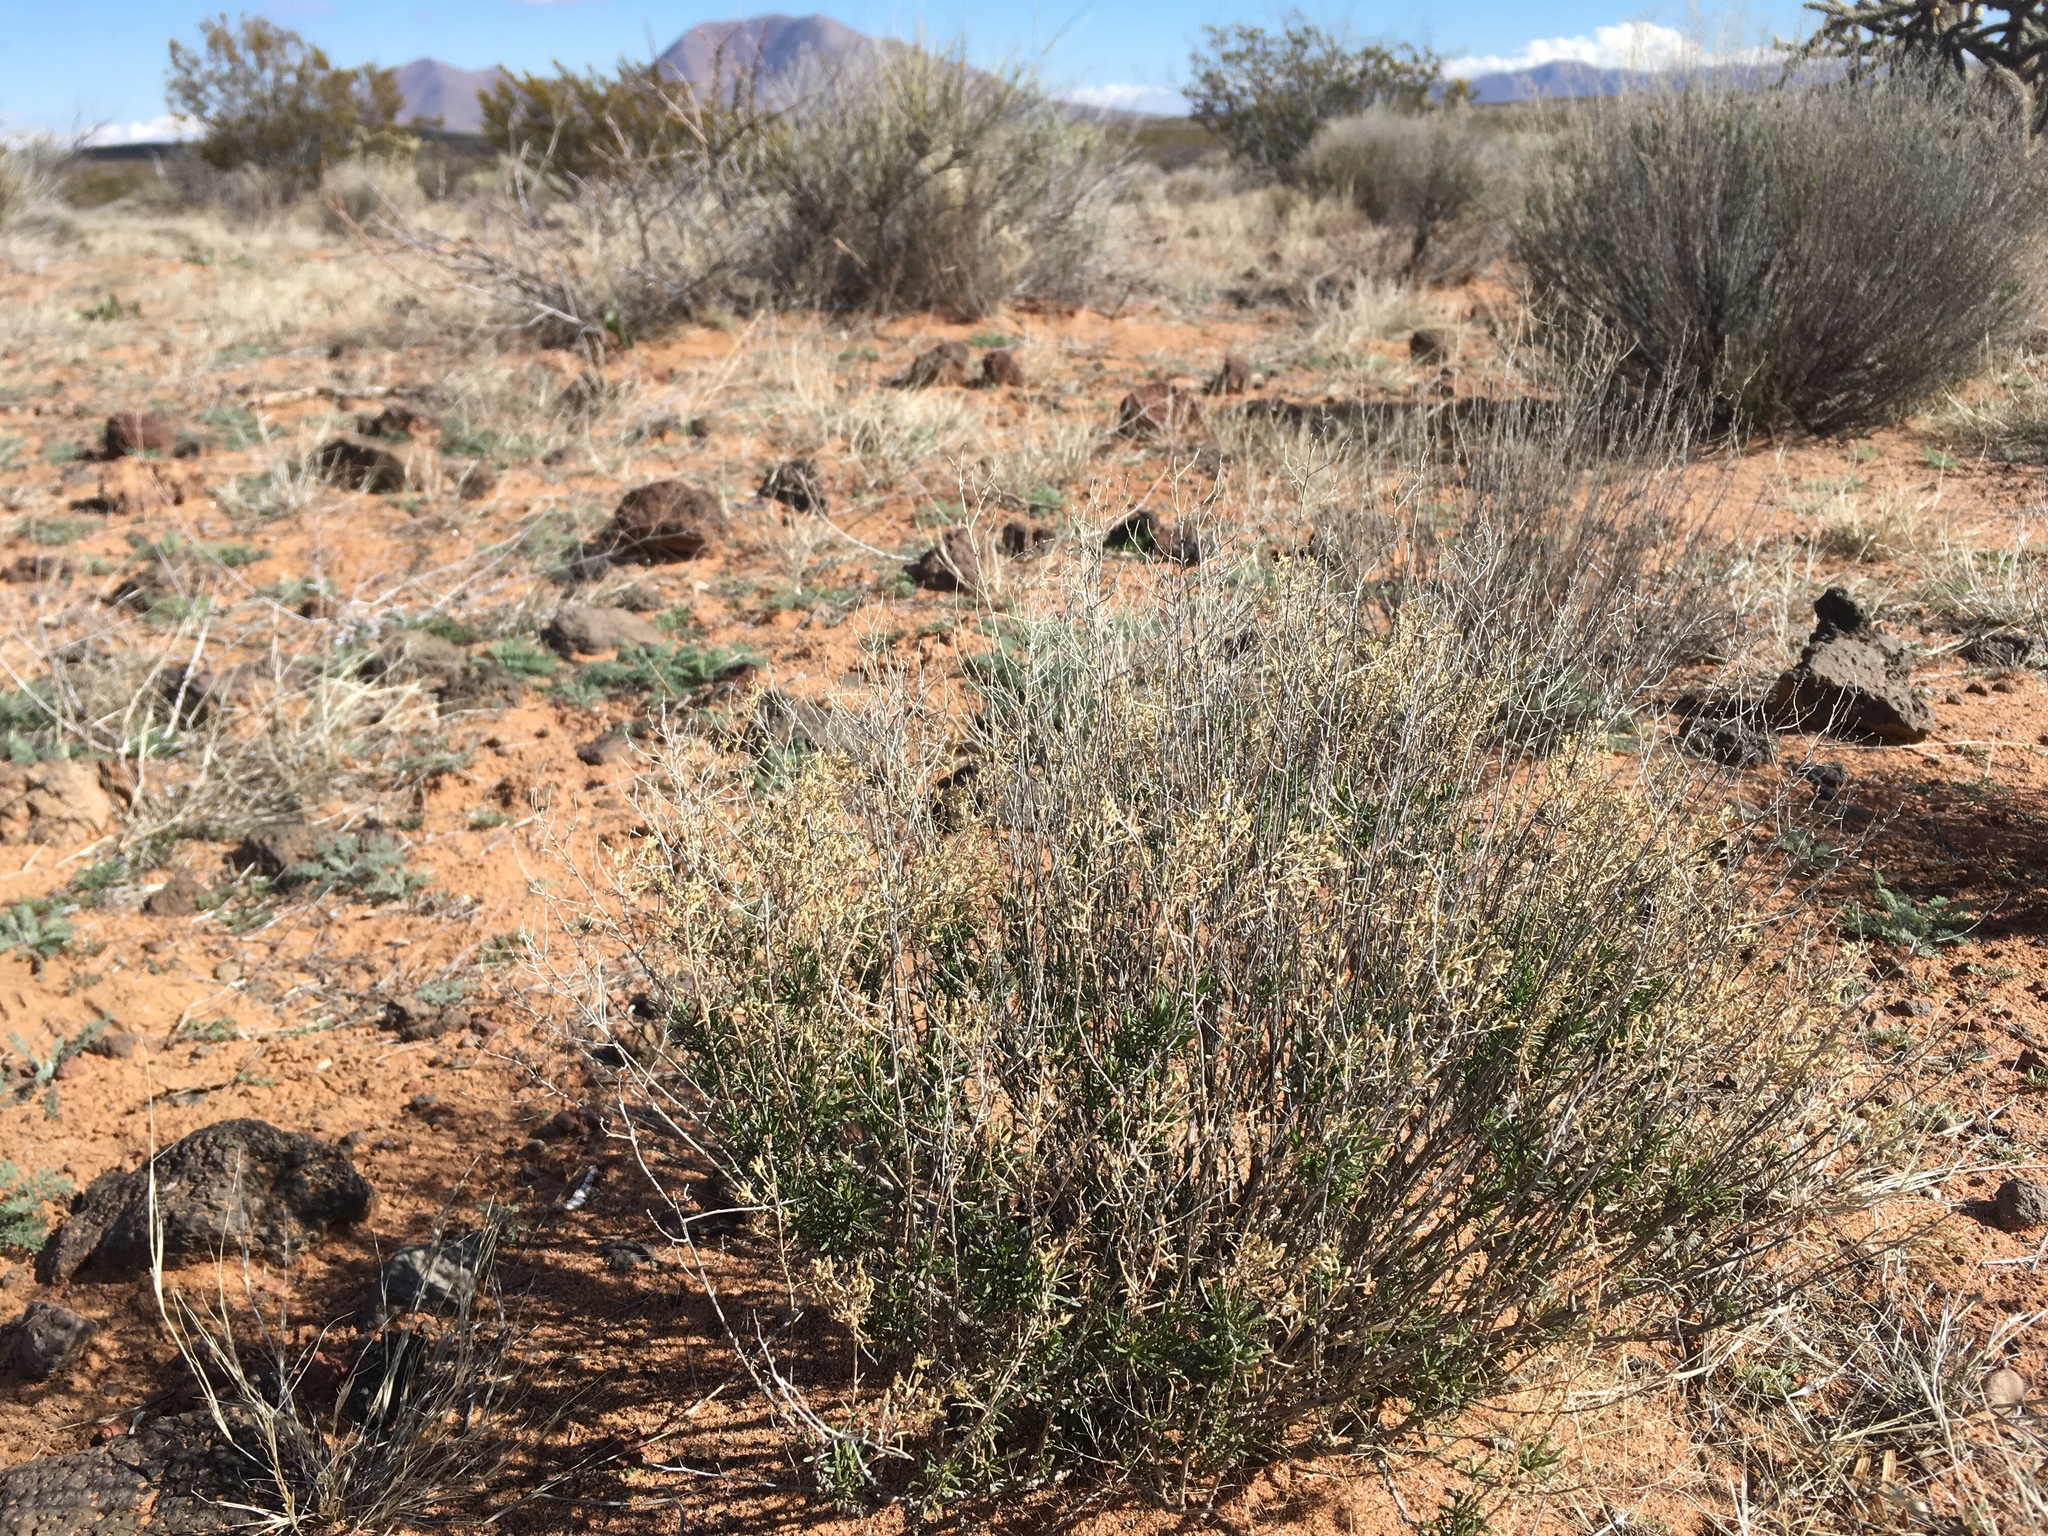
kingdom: Plantae
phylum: Tracheophyta
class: Magnoliopsida
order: Asterales
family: Asteraceae
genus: Gutierrezia
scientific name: Gutierrezia microcephala
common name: Thread snakeweed
